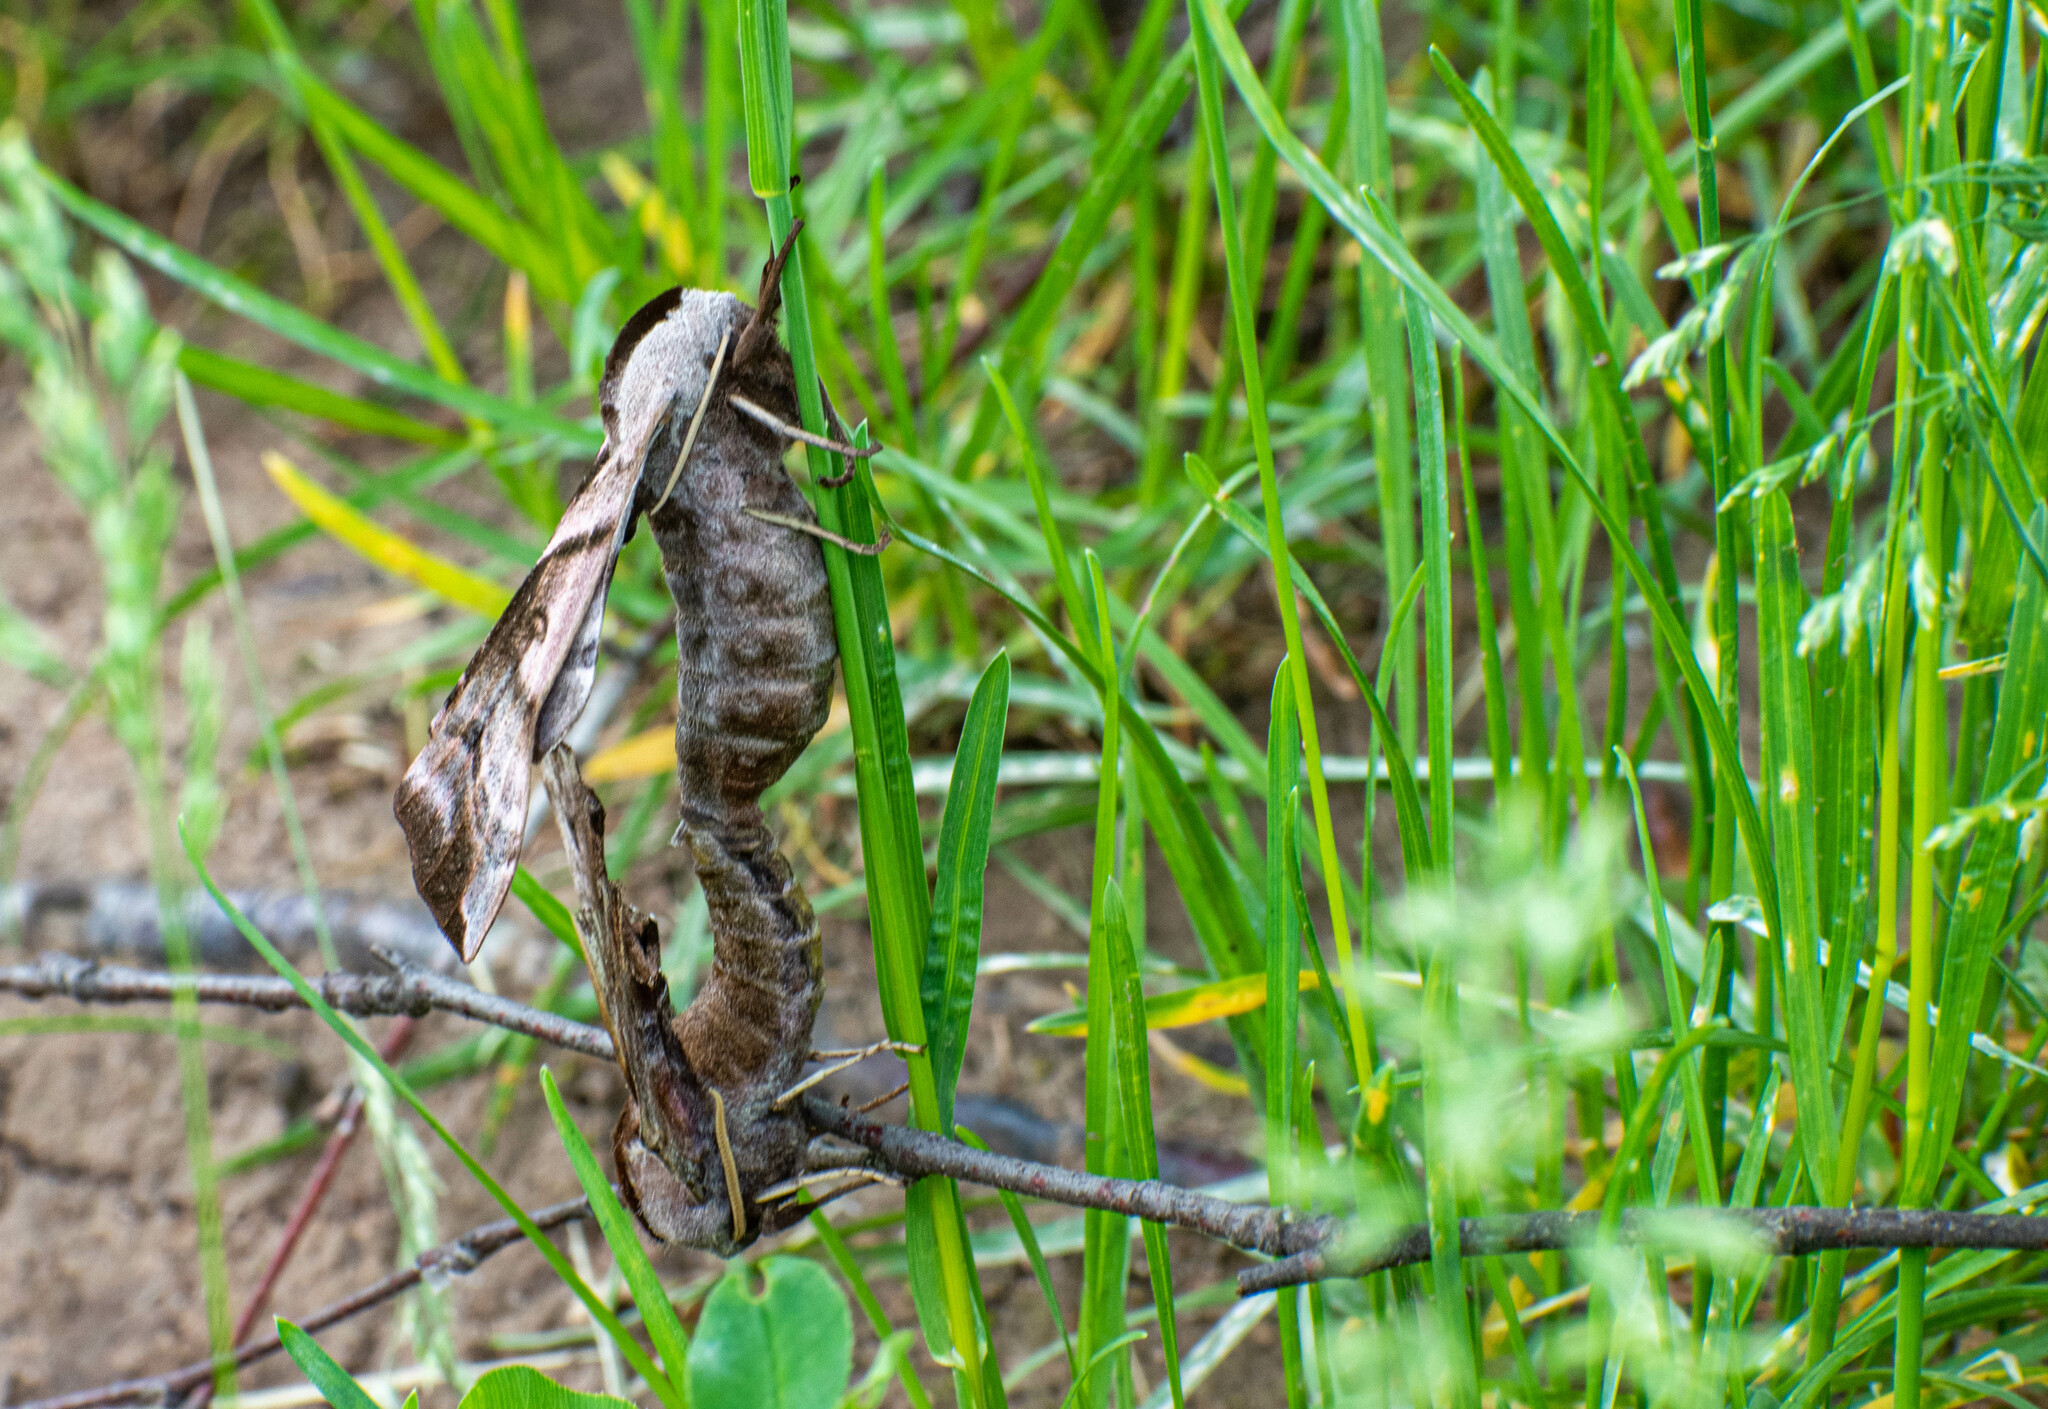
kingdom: Animalia
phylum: Arthropoda
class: Insecta
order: Lepidoptera
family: Sphingidae
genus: Smerinthus
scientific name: Smerinthus ocellata
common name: Eyed hawk-moth
